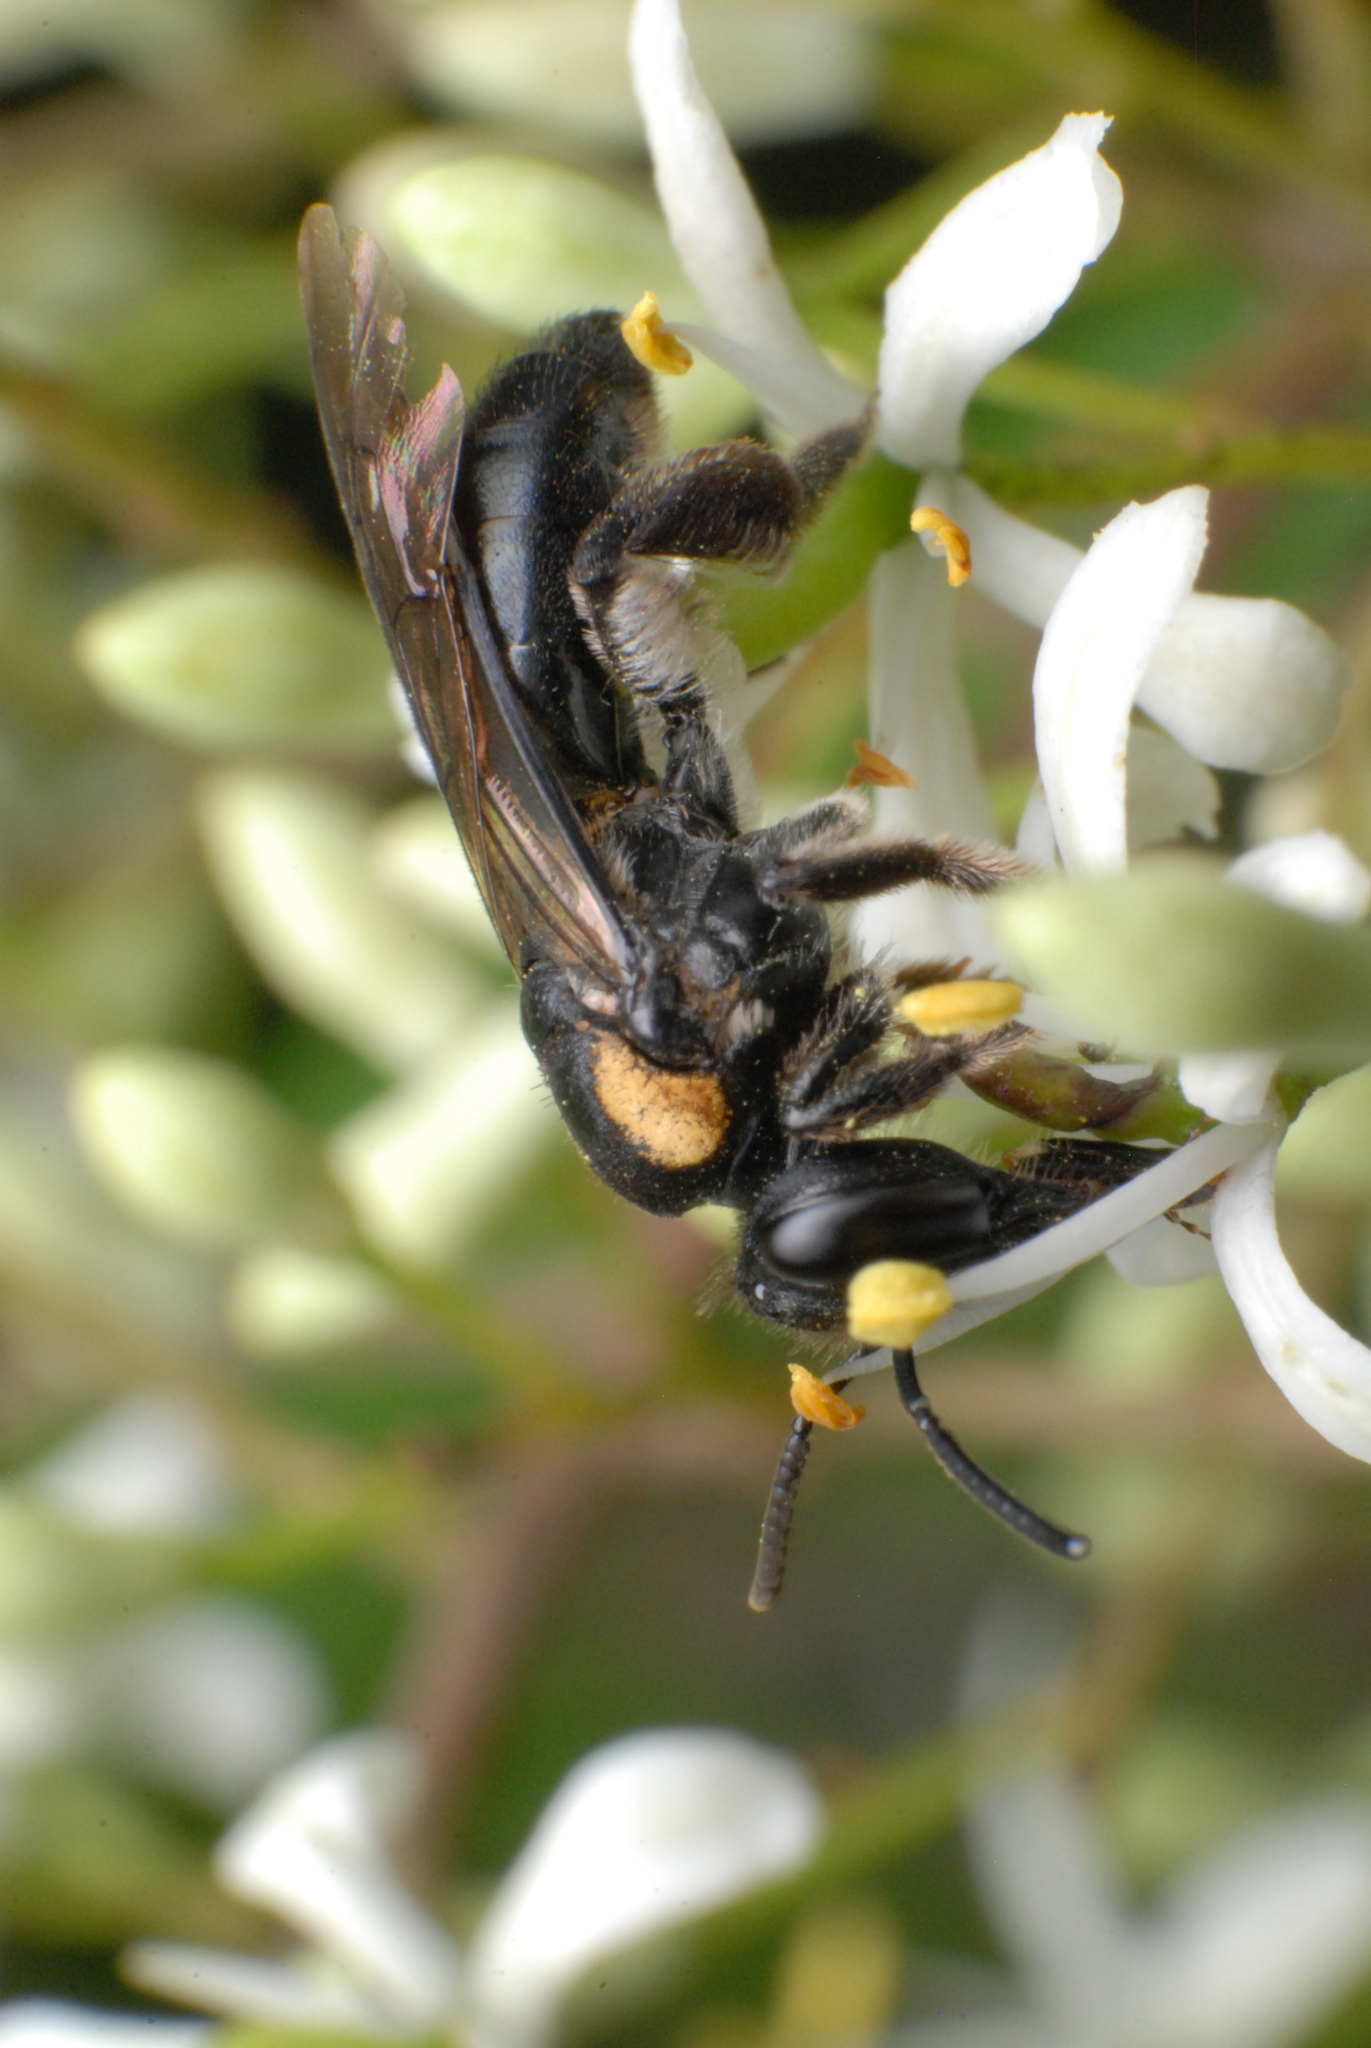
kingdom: Animalia
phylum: Arthropoda
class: Insecta
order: Hymenoptera
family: Colletidae
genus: Leioproctus
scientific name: Leioproctus irroratus
